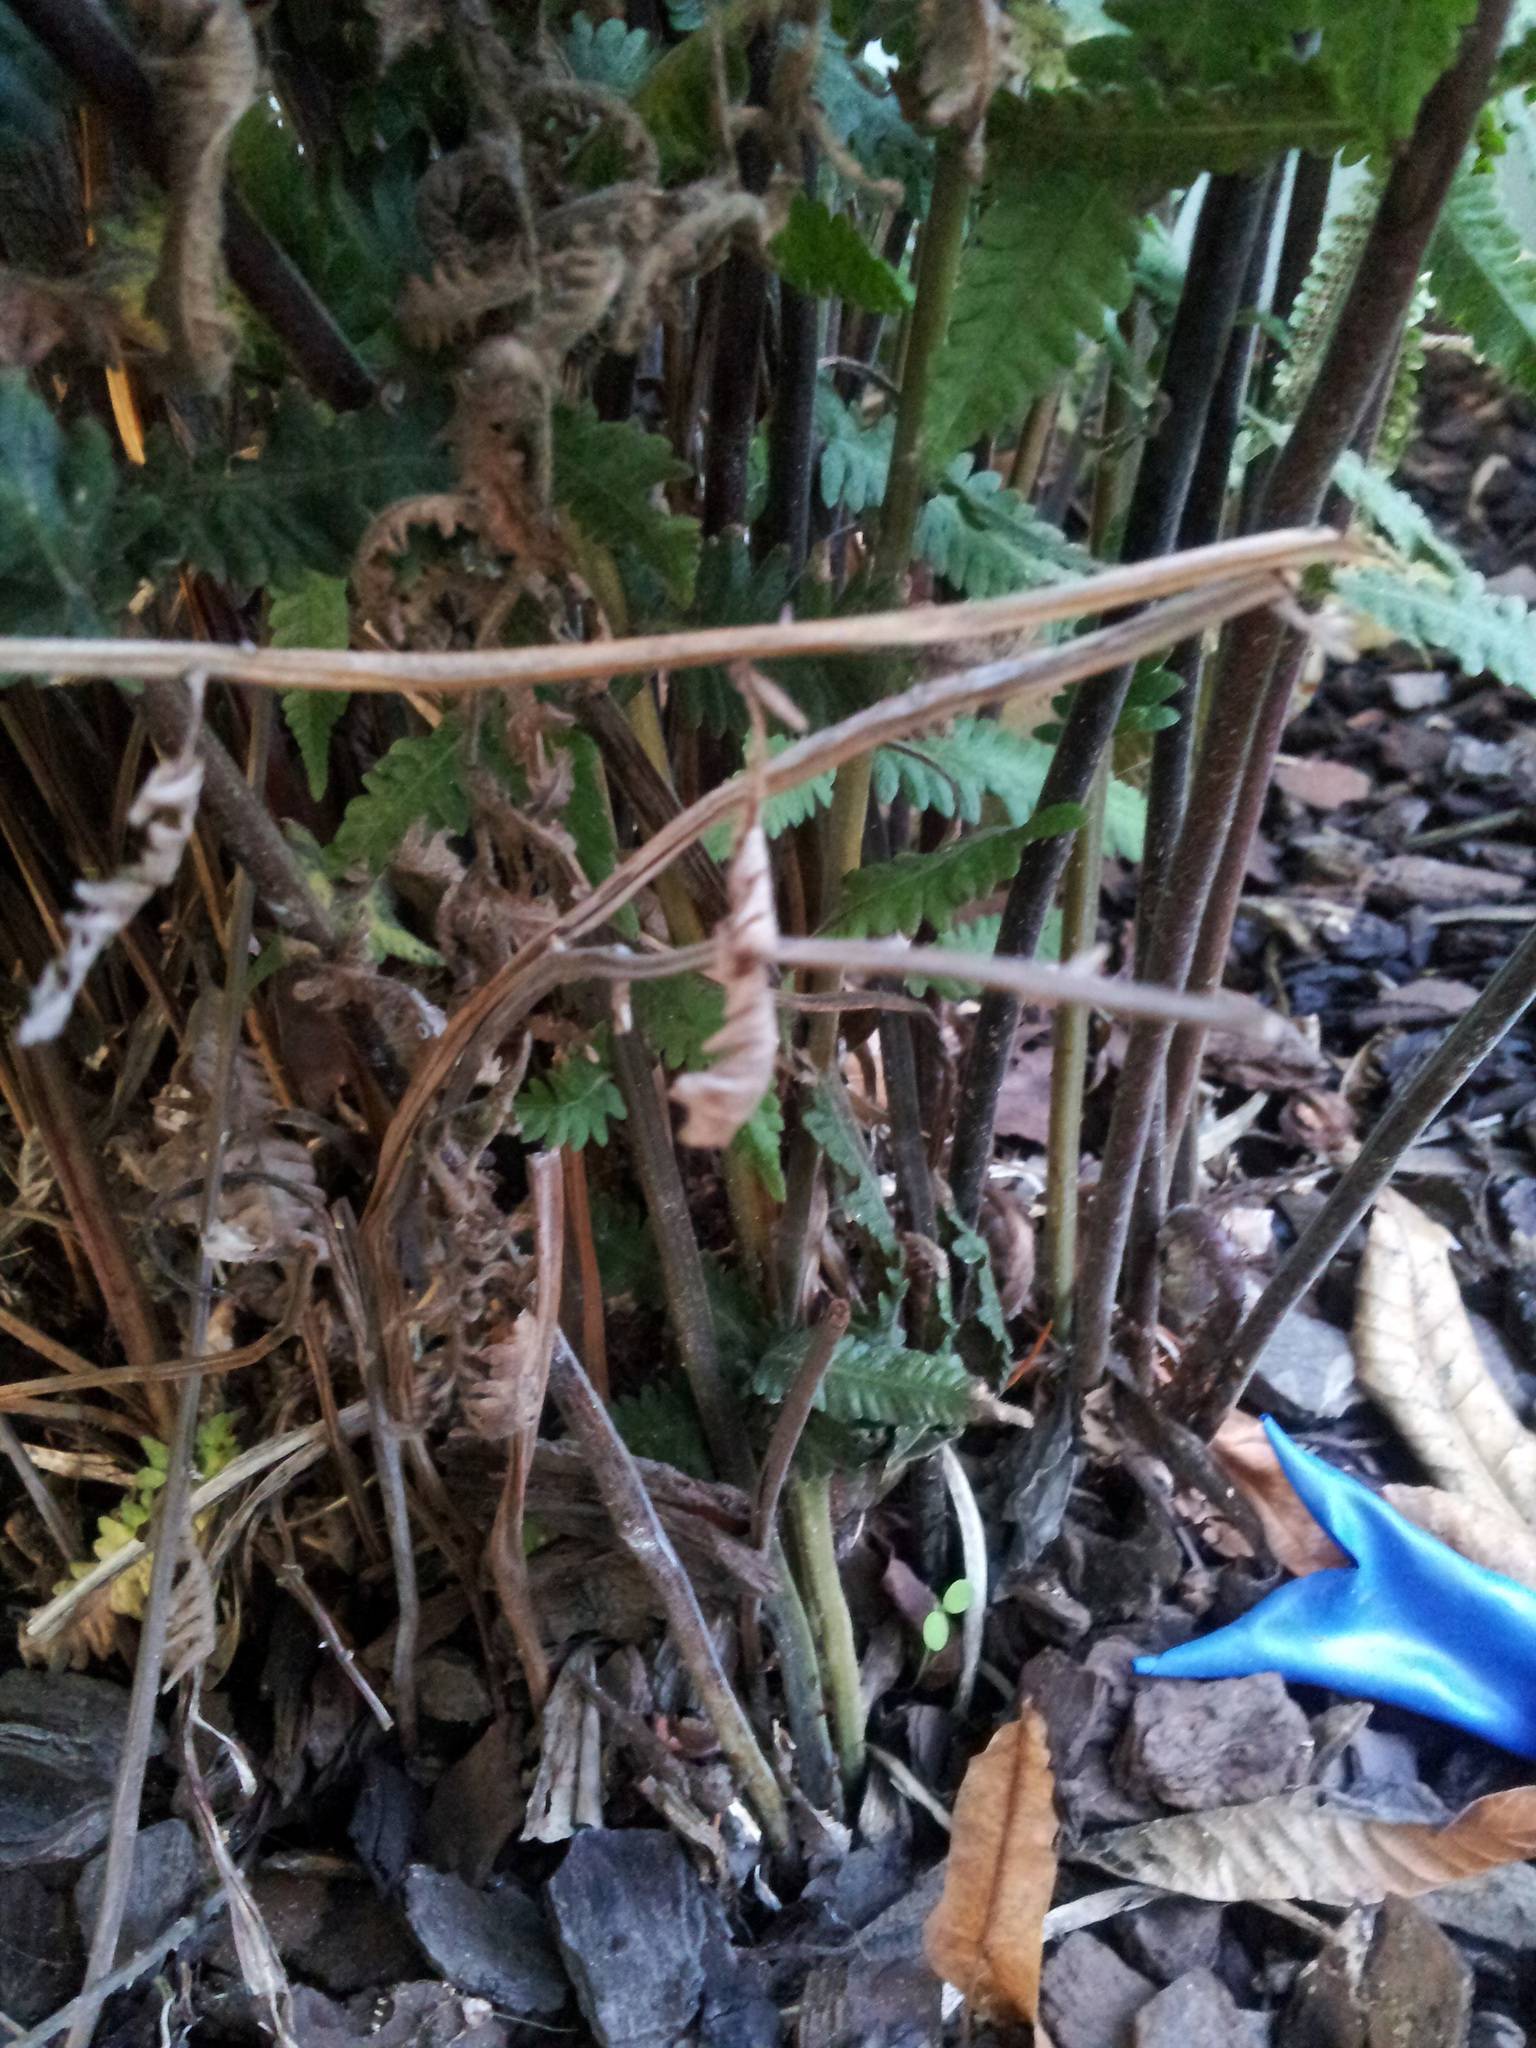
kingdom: Plantae
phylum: Tracheophyta
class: Polypodiopsida
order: Polypodiales
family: Thelypteridaceae
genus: Christella
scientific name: Christella dentata
